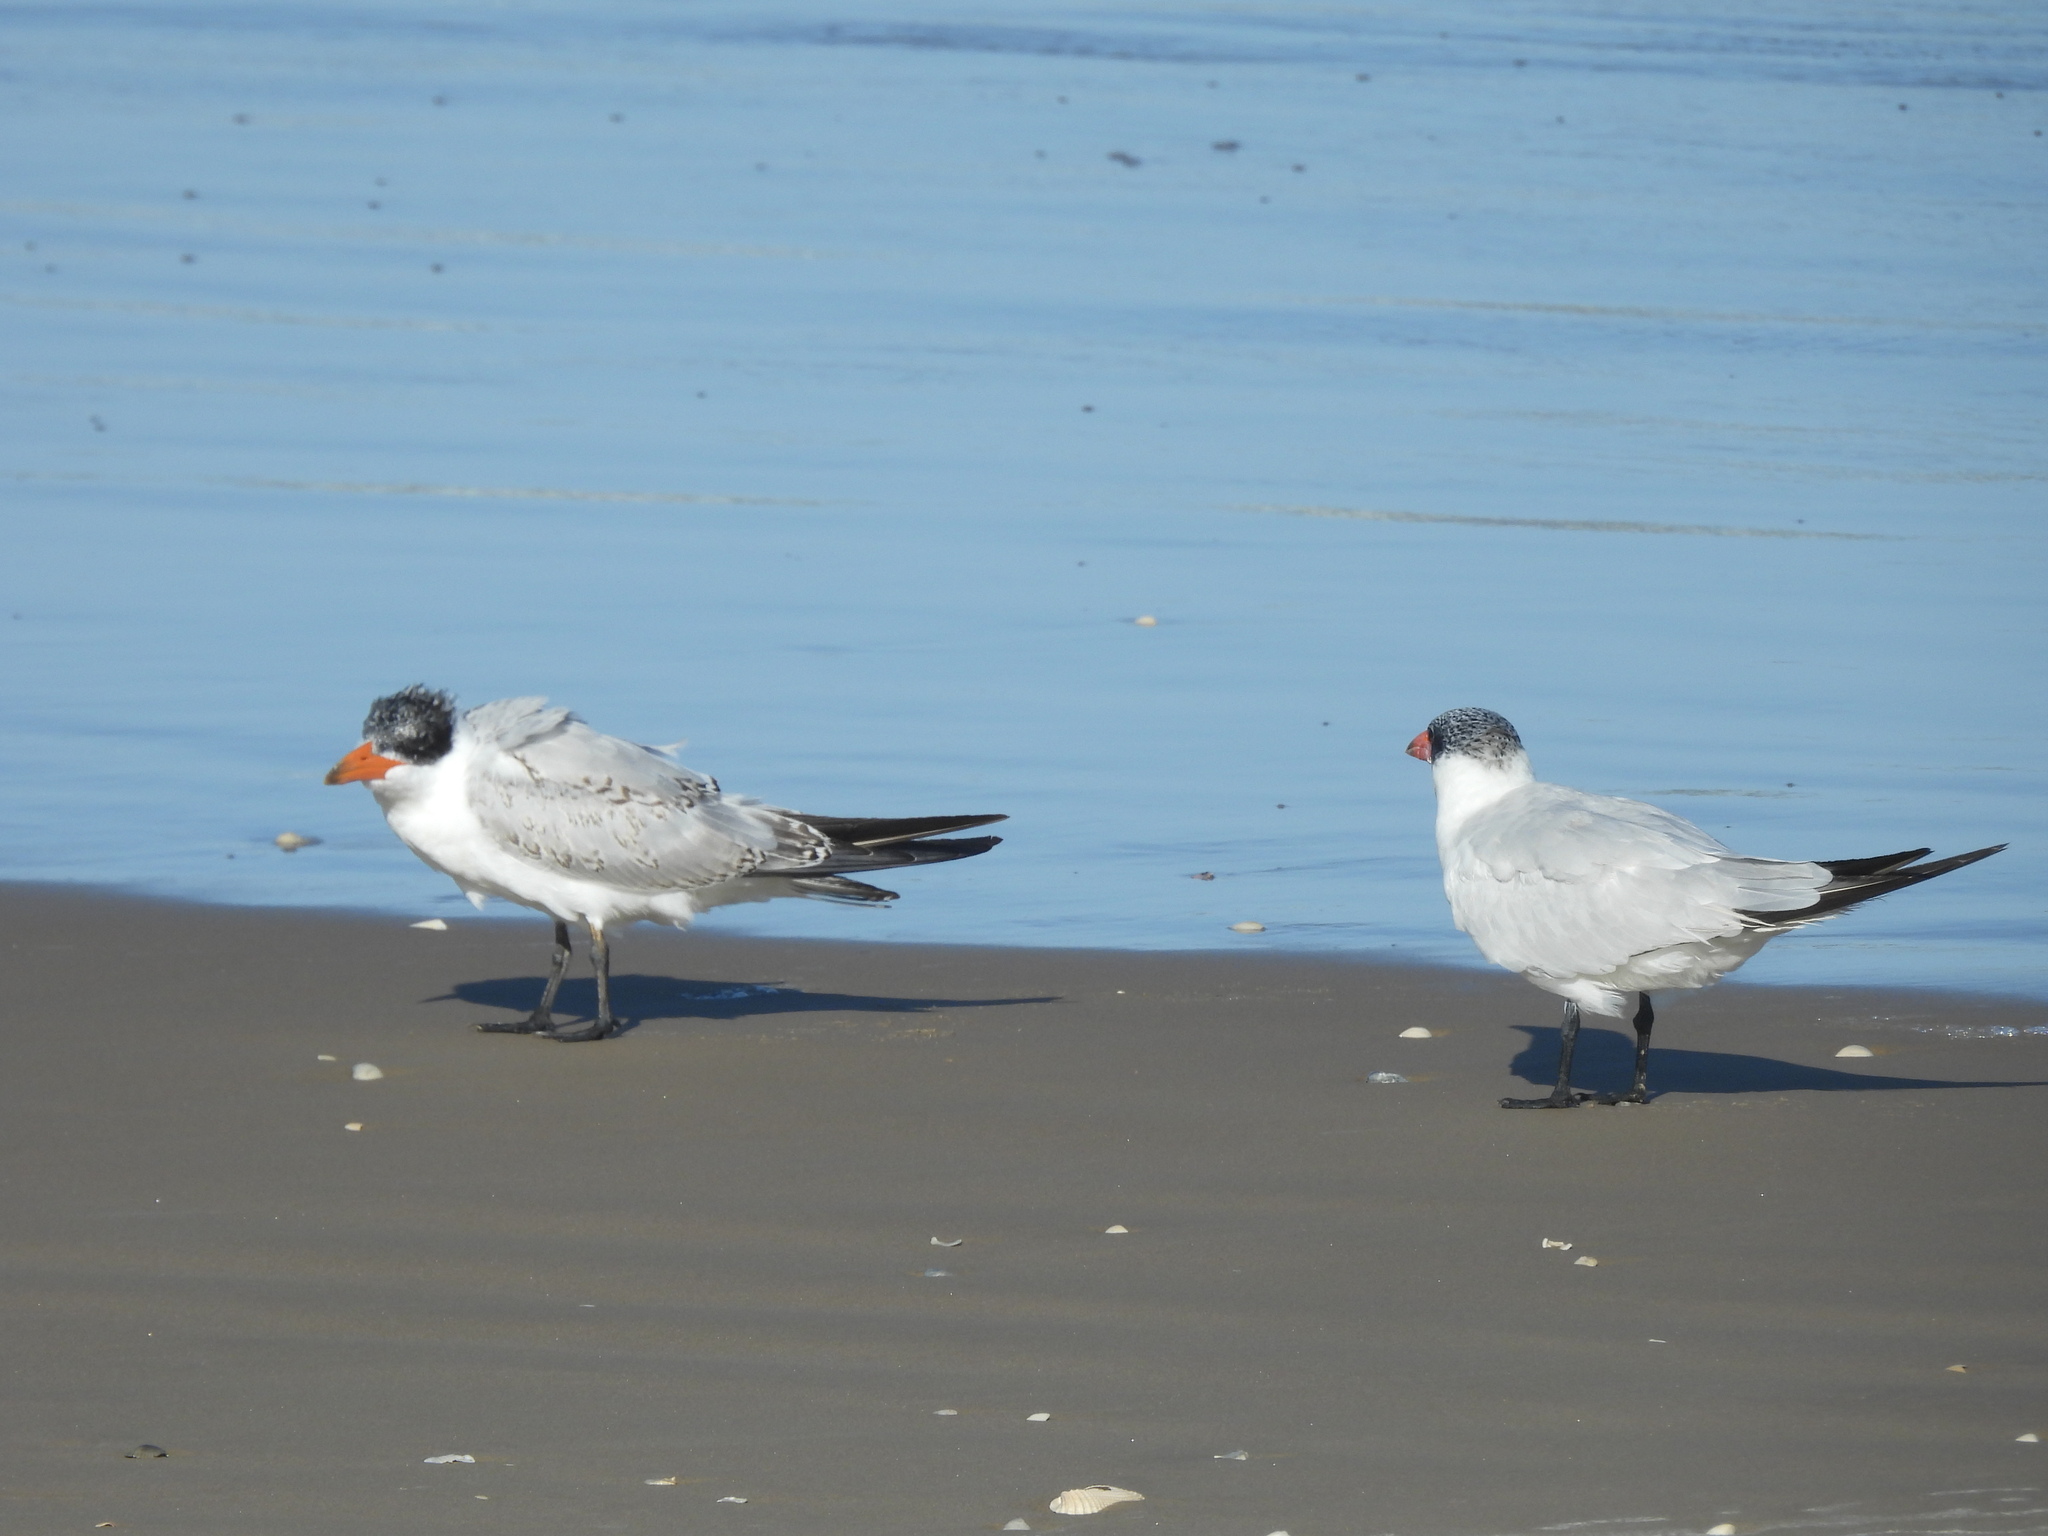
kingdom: Animalia
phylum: Chordata
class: Aves
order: Charadriiformes
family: Laridae
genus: Hydroprogne
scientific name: Hydroprogne caspia
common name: Caspian tern
